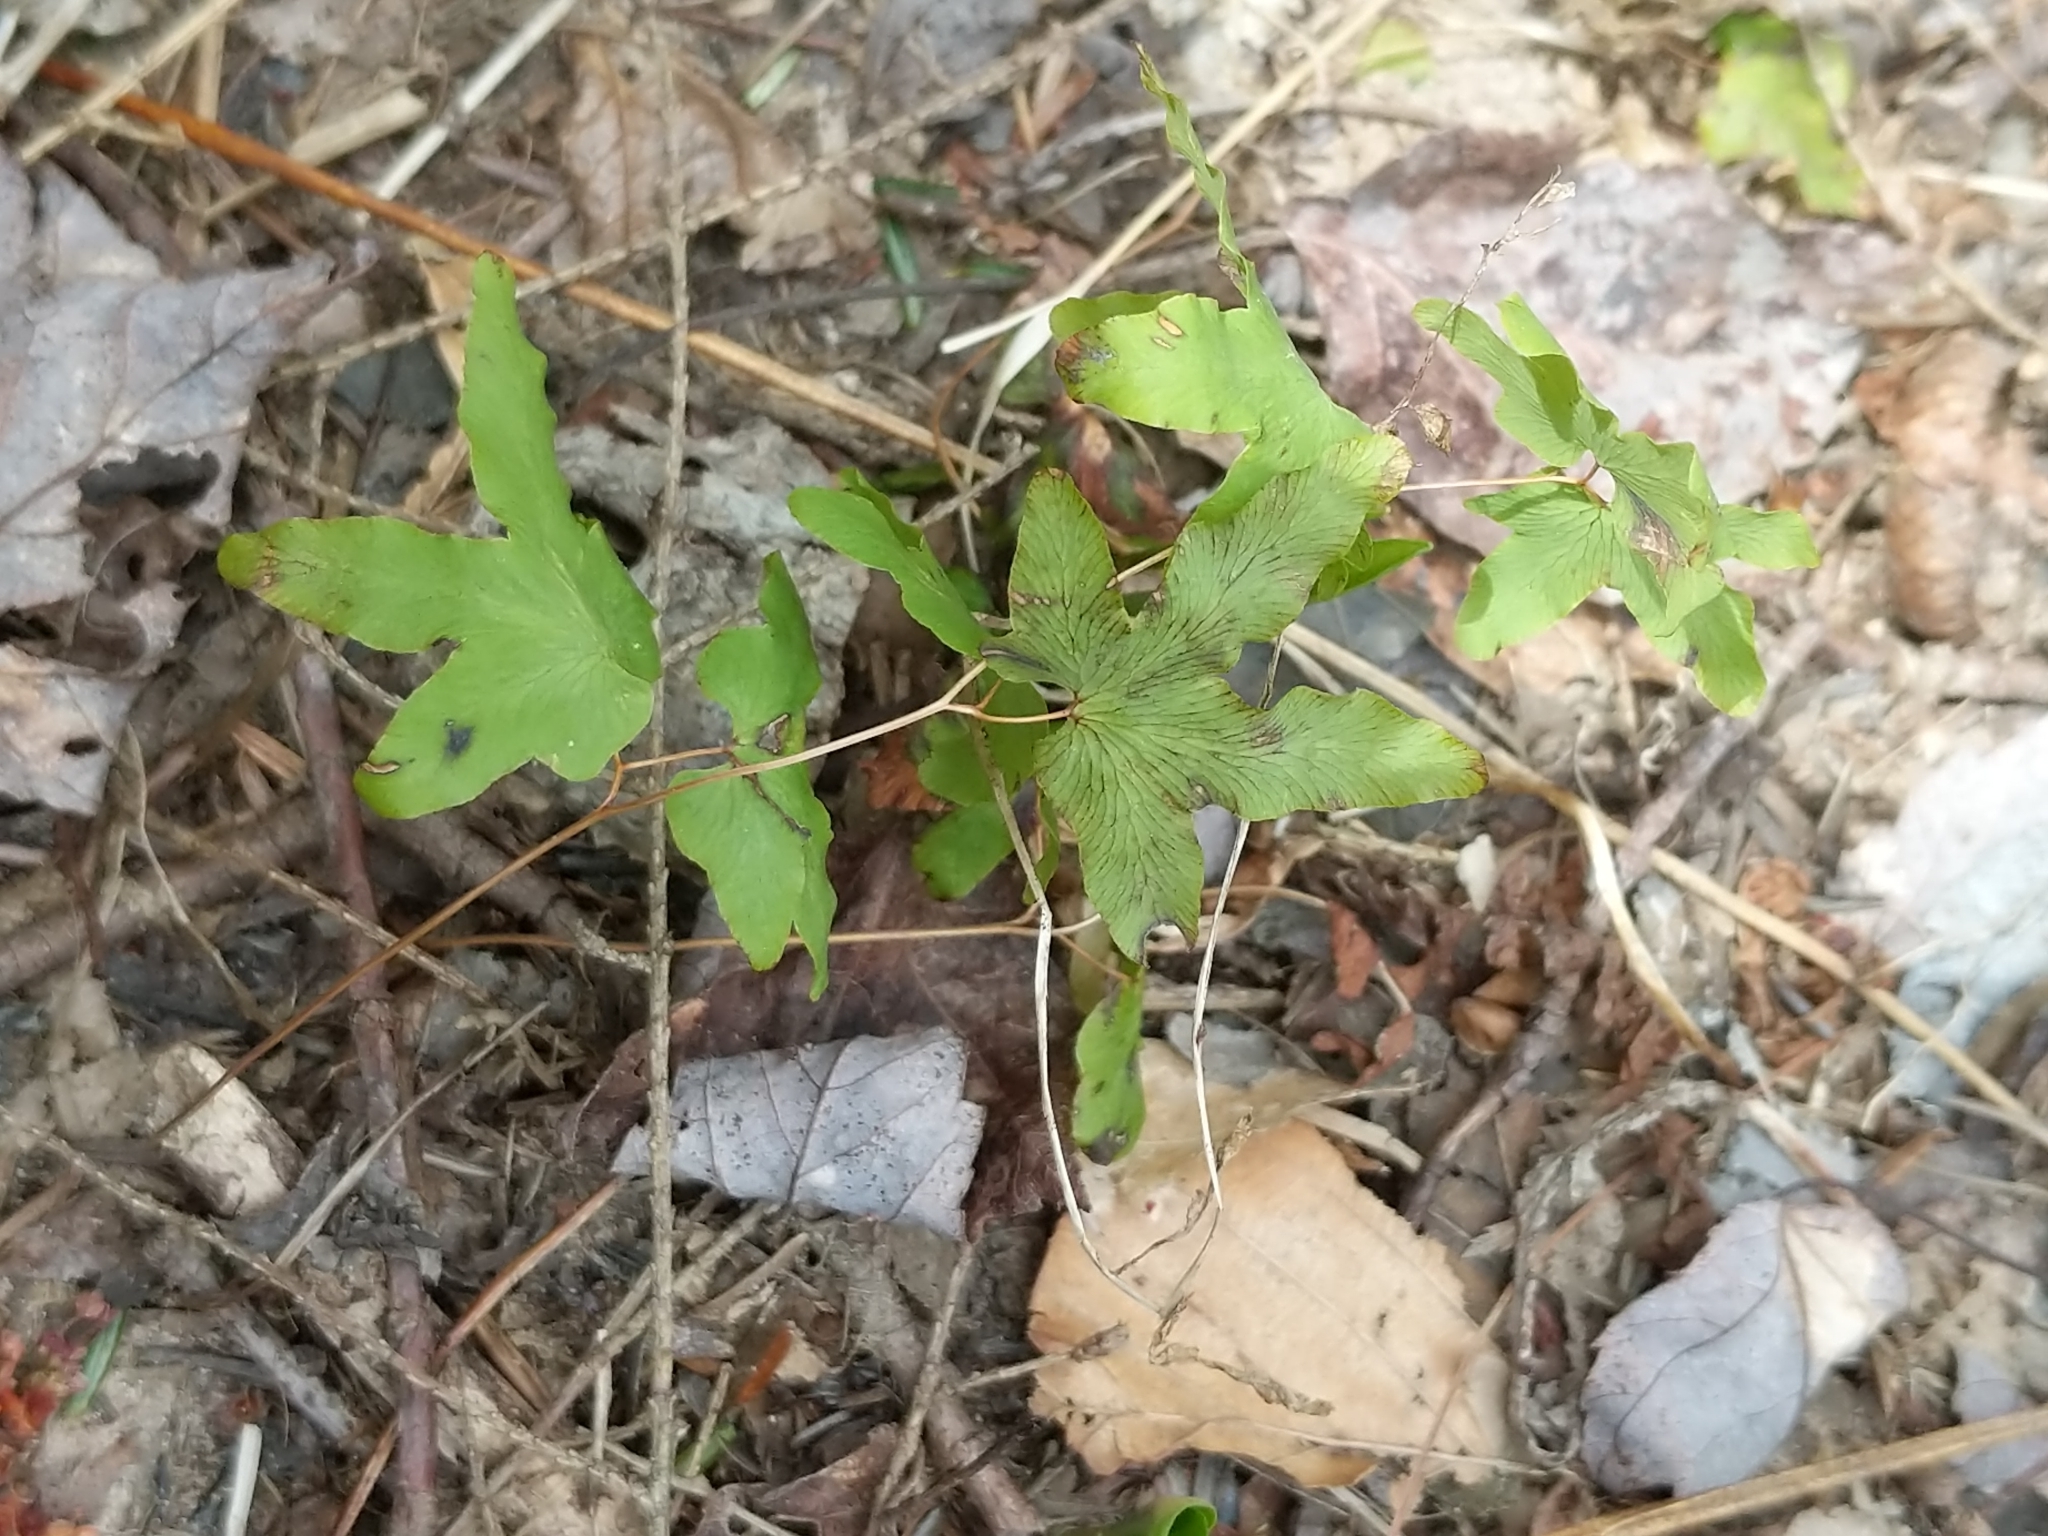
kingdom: Plantae
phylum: Tracheophyta
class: Polypodiopsida
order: Schizaeales
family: Lygodiaceae
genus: Lygodium
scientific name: Lygodium palmatum
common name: American climbing fern
